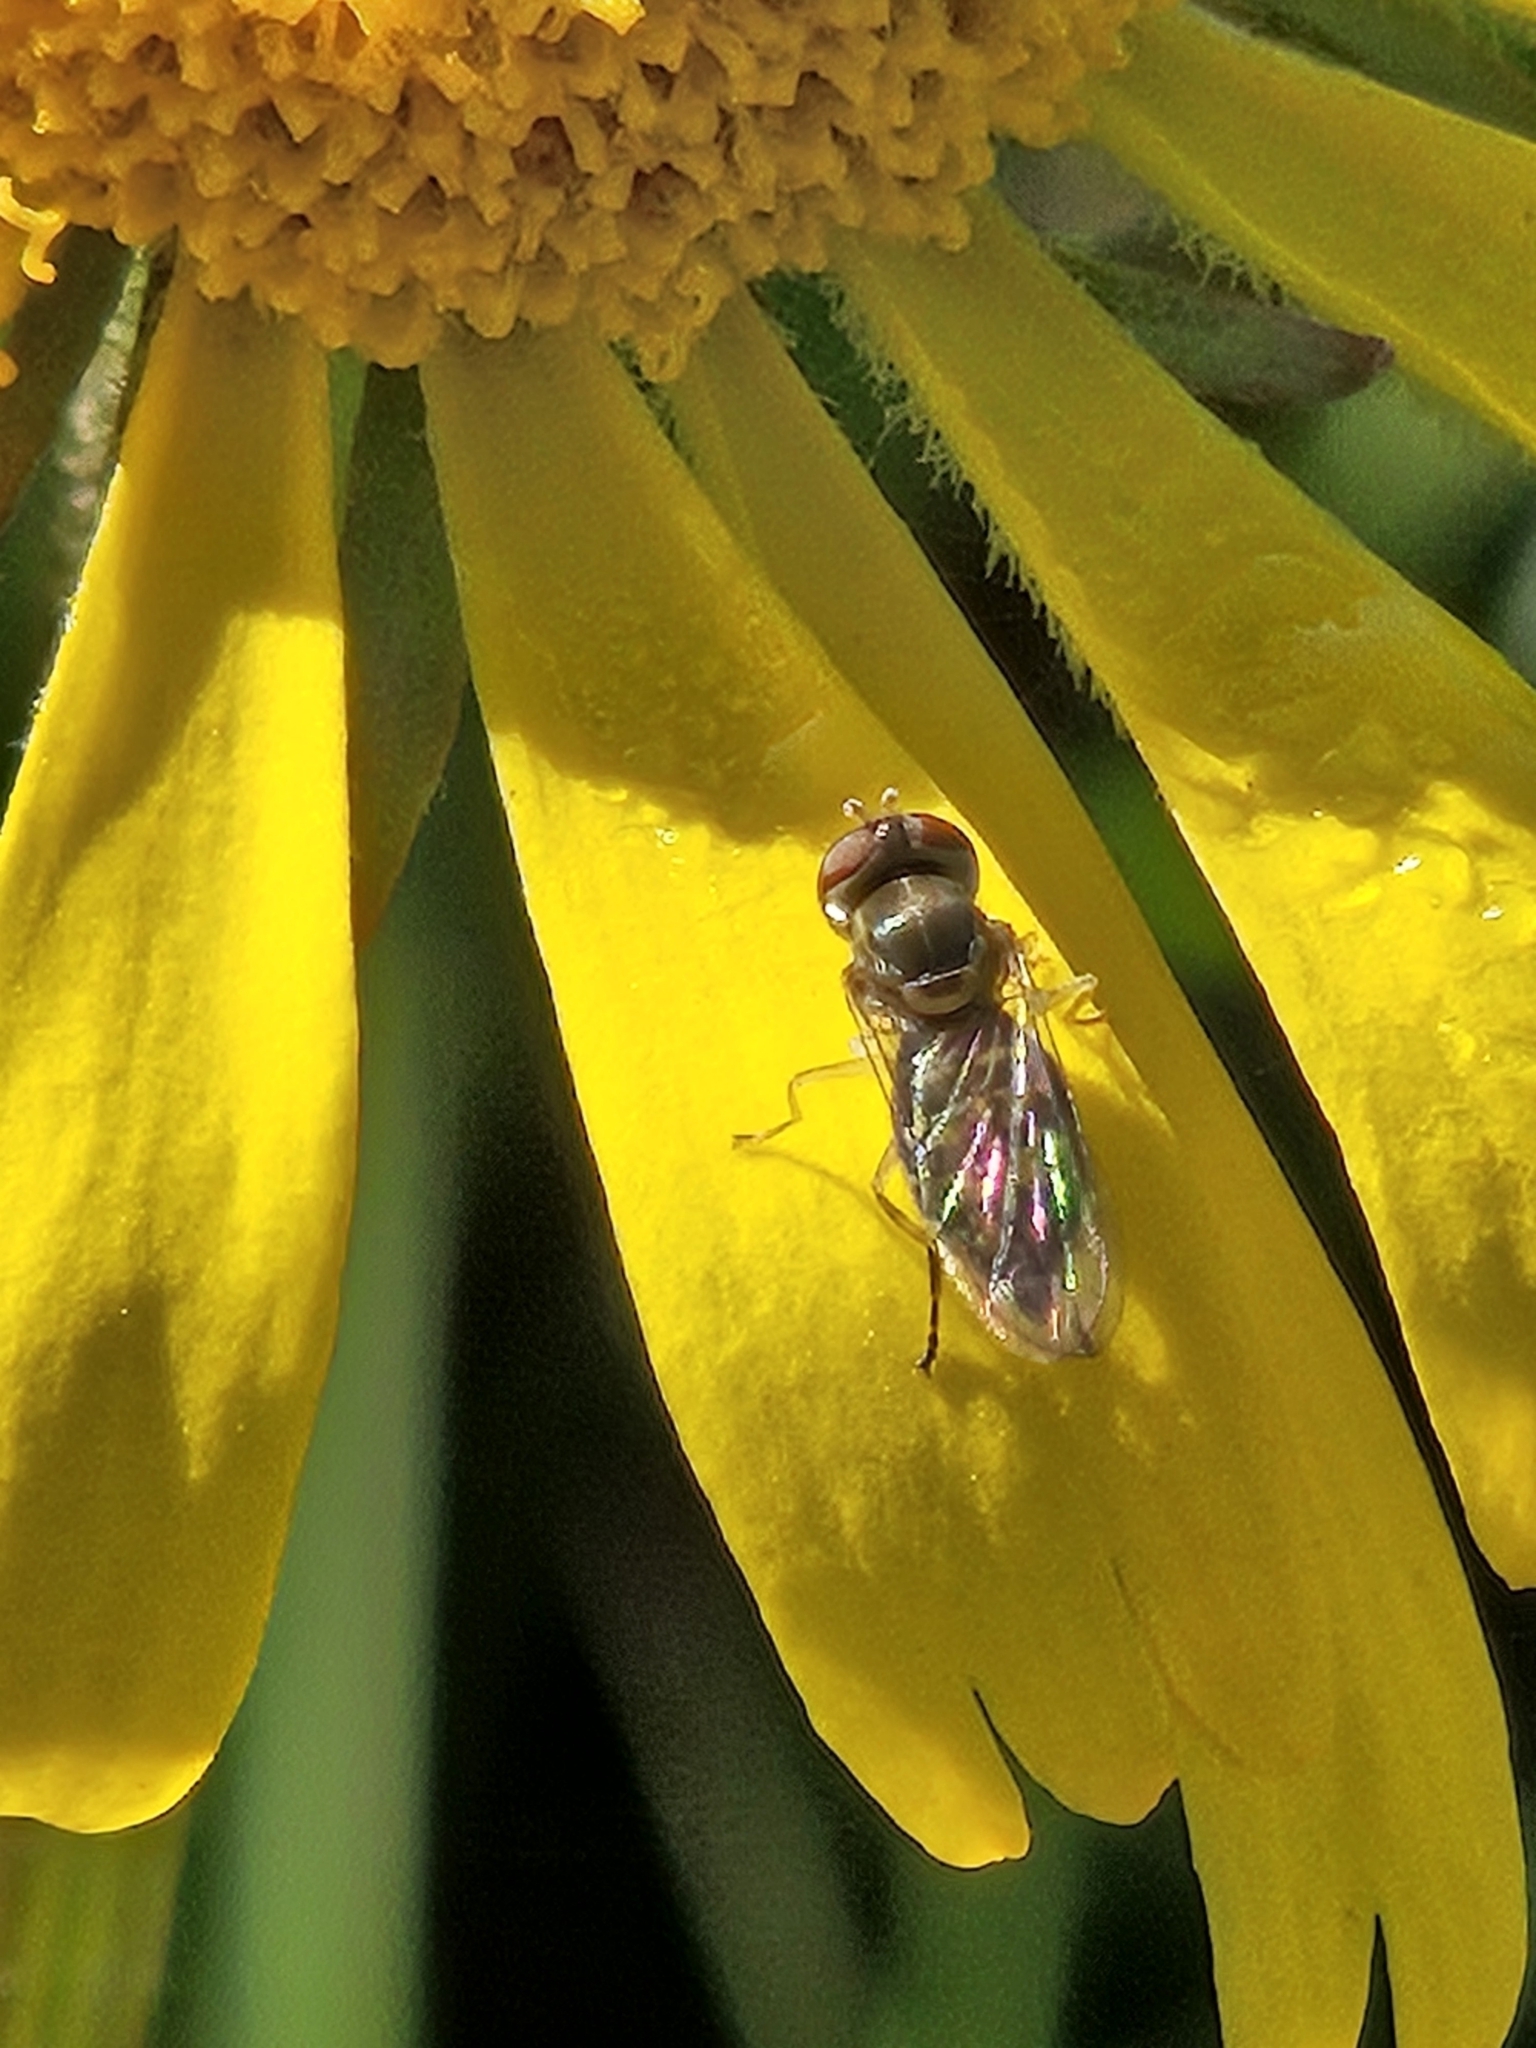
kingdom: Animalia
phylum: Arthropoda
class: Insecta
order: Diptera
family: Syrphidae
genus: Toxomerus
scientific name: Toxomerus marginatus
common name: Syrphid fly
